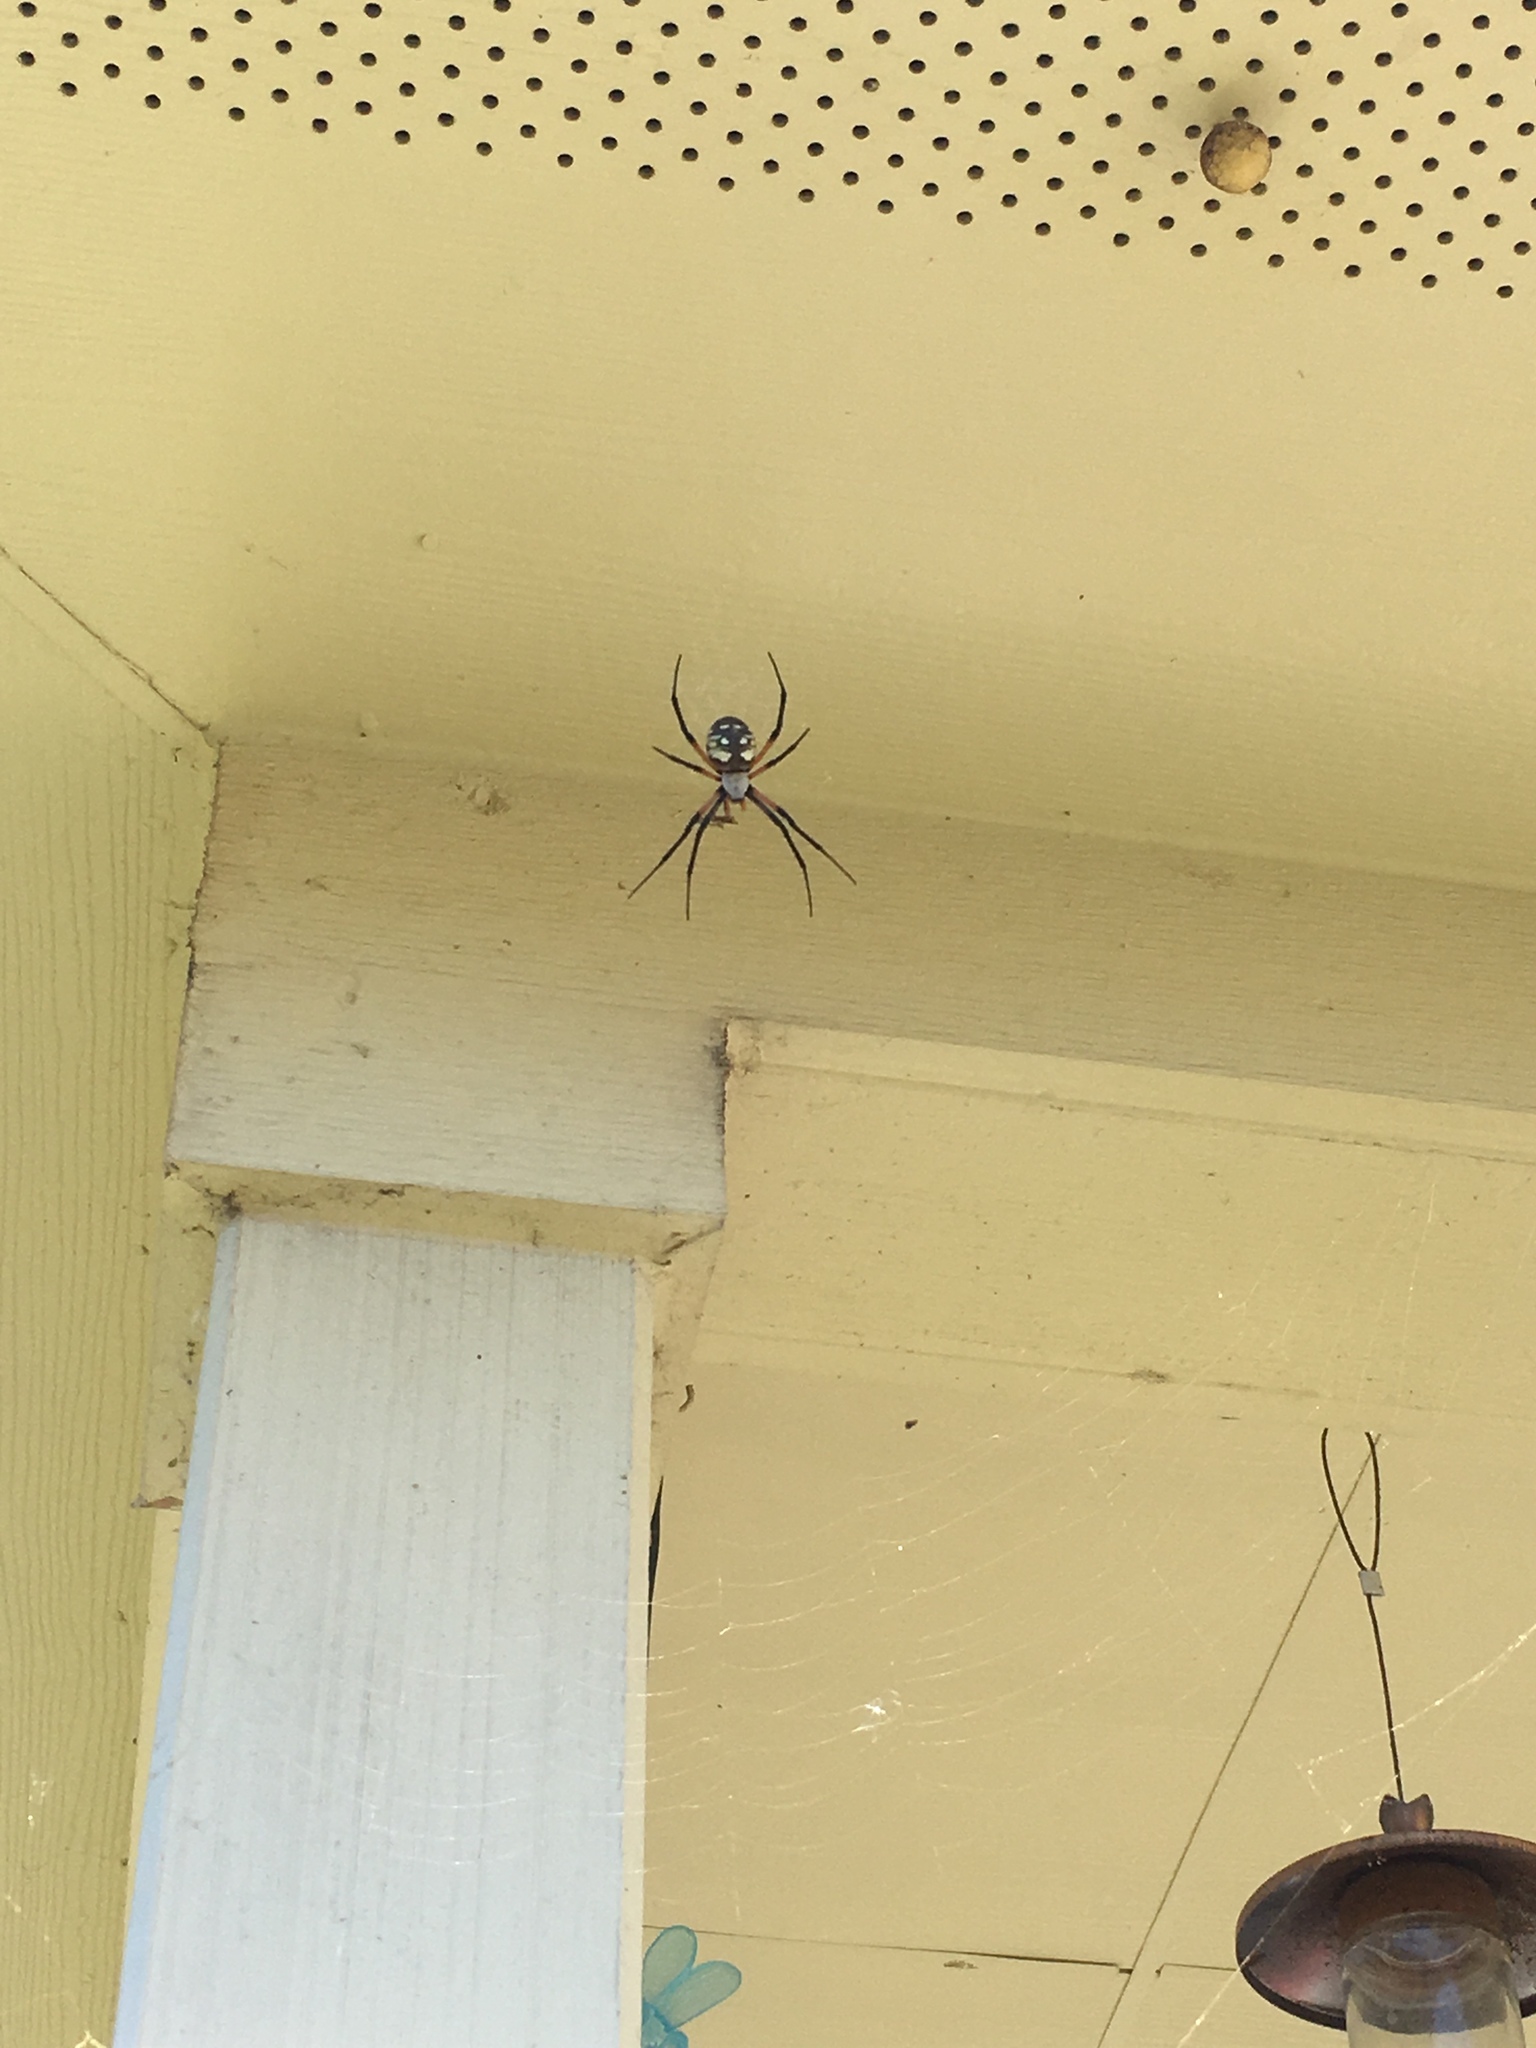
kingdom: Animalia
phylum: Arthropoda
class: Arachnida
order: Araneae
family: Araneidae
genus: Argiope
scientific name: Argiope aurantia
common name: Orb weavers
